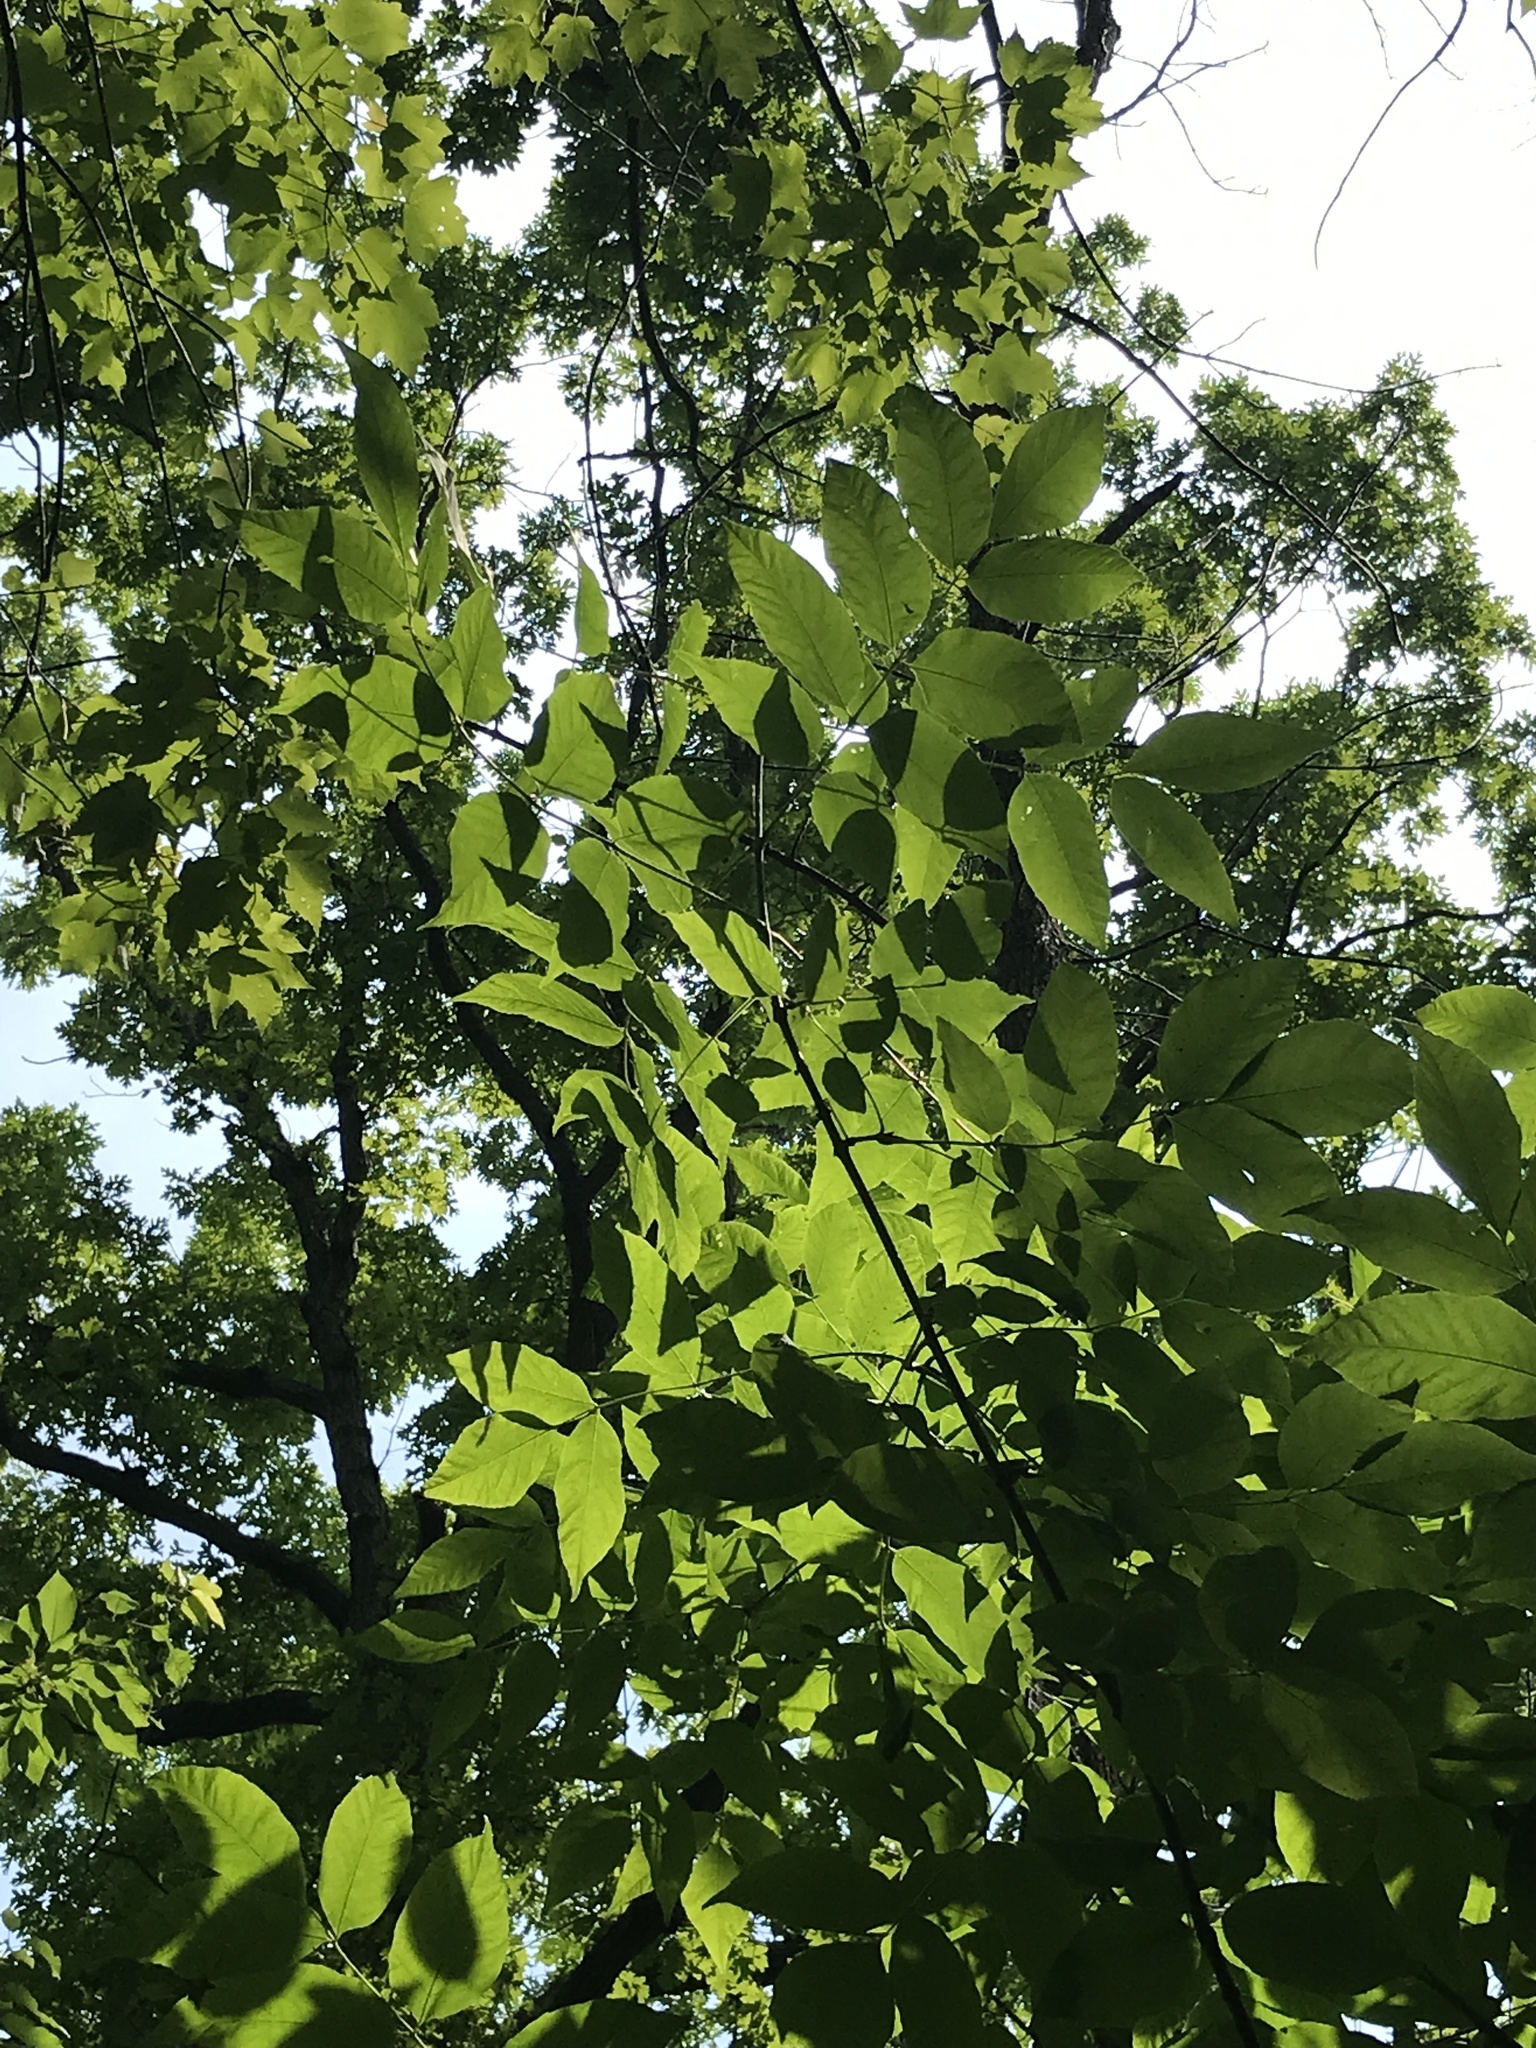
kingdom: Plantae
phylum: Tracheophyta
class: Magnoliopsida
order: Lamiales
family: Oleaceae
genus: Fraxinus
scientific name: Fraxinus americana
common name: White ash
